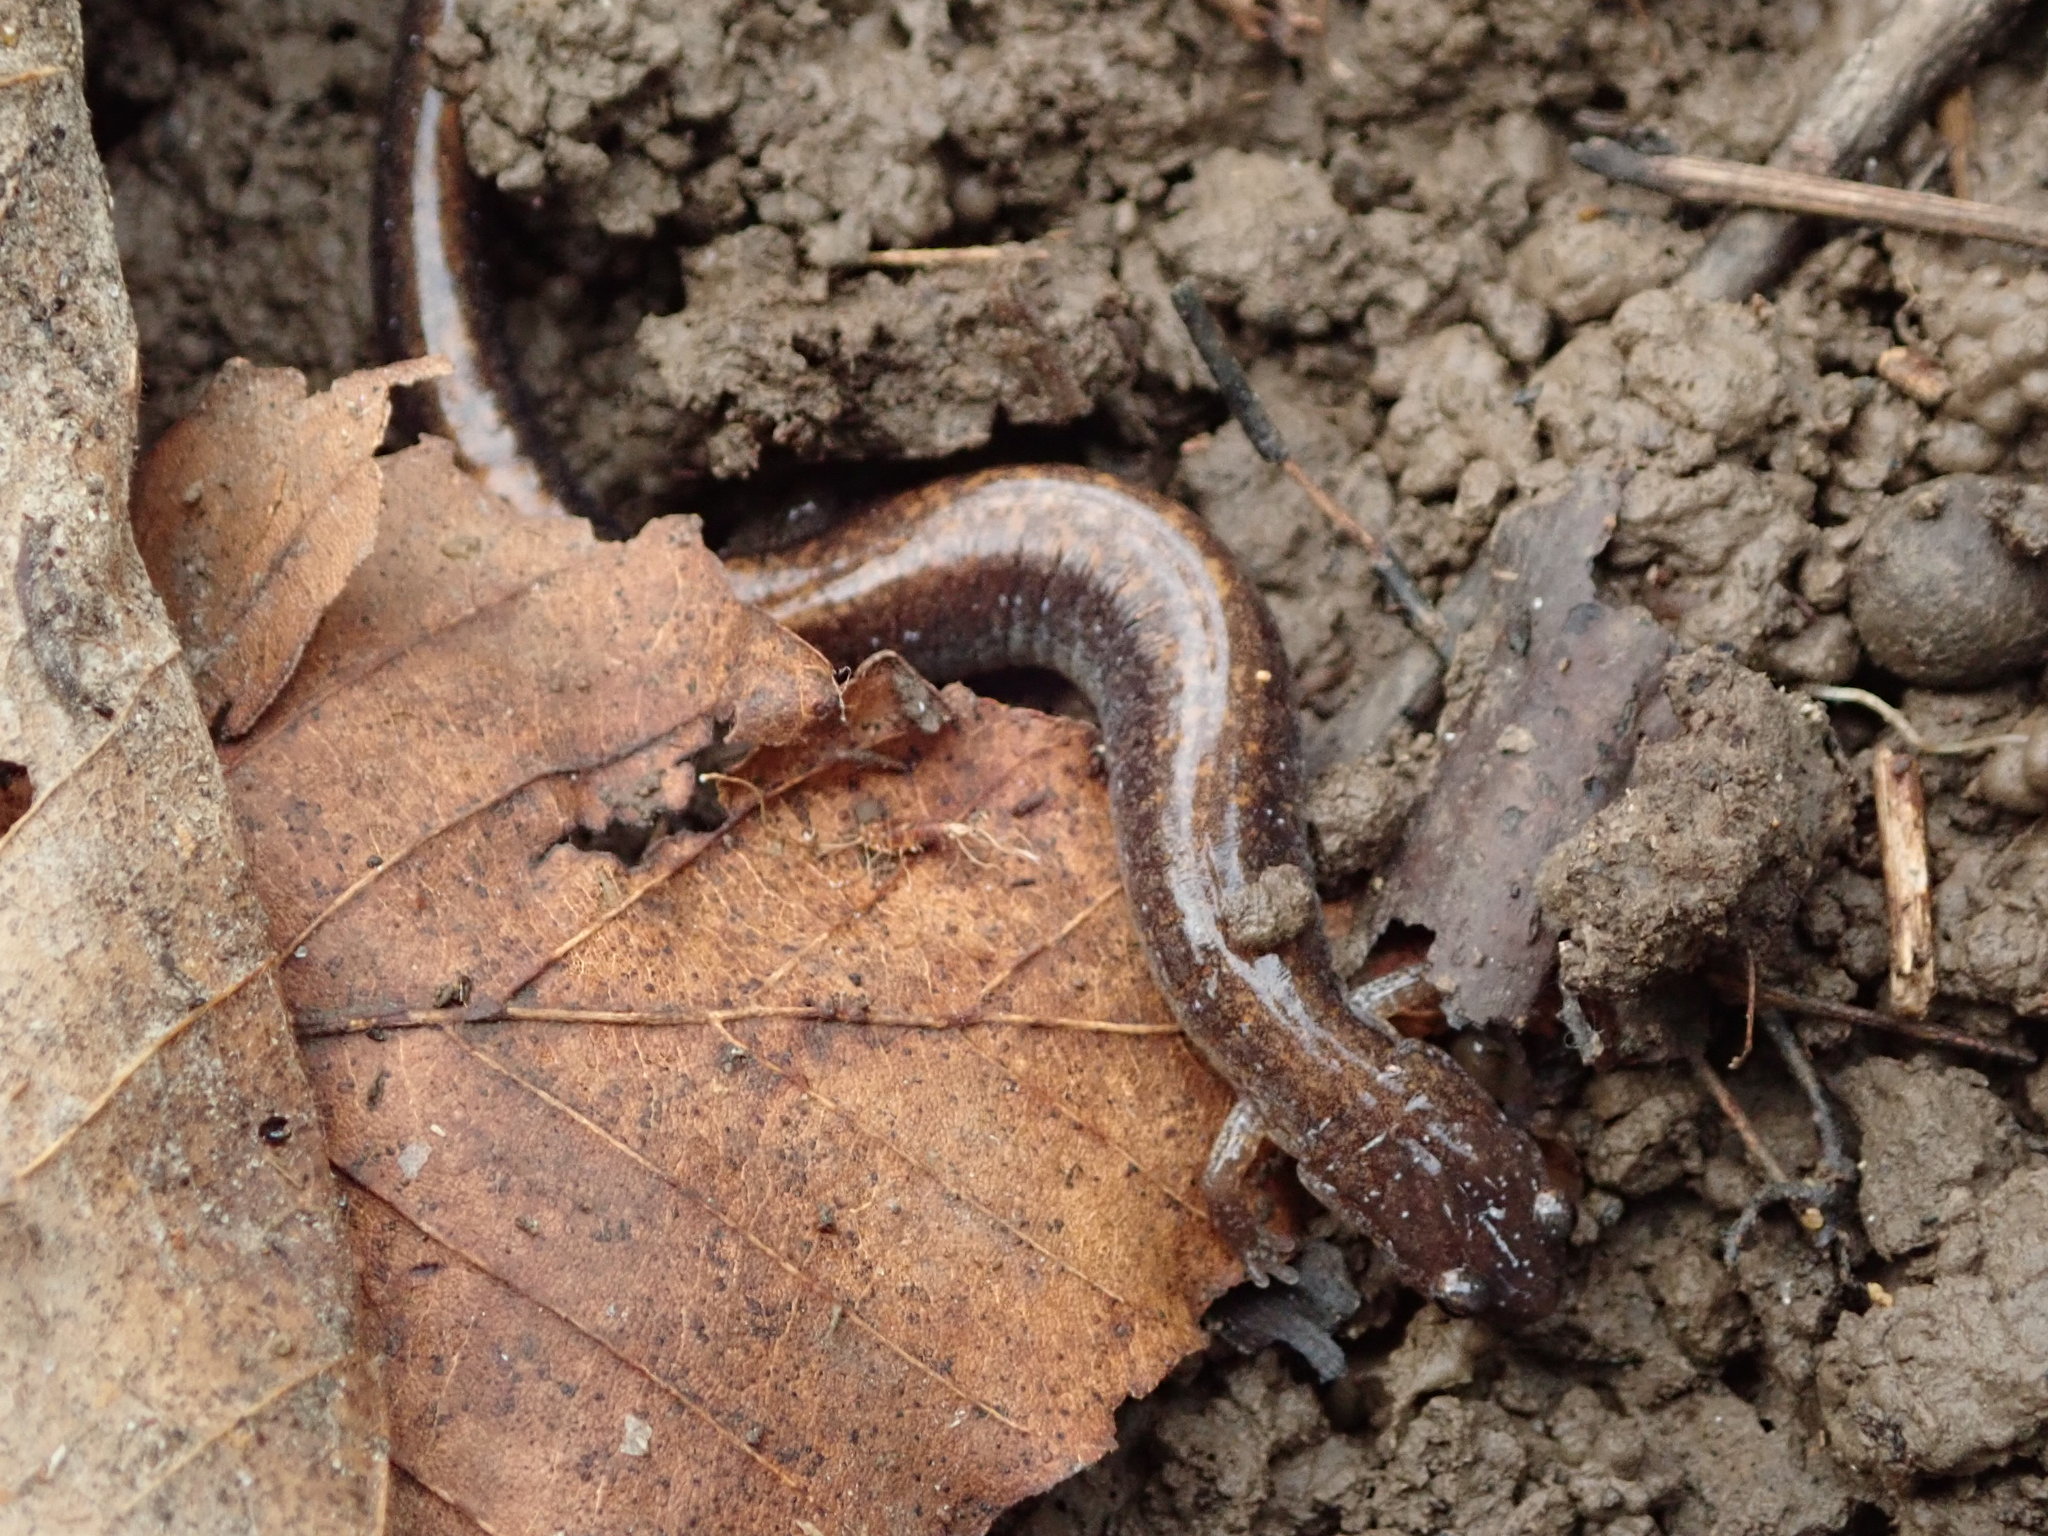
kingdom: Animalia
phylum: Chordata
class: Amphibia
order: Caudata
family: Plethodontidae
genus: Plethodon
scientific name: Plethodon cinereus
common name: Redback salamander
